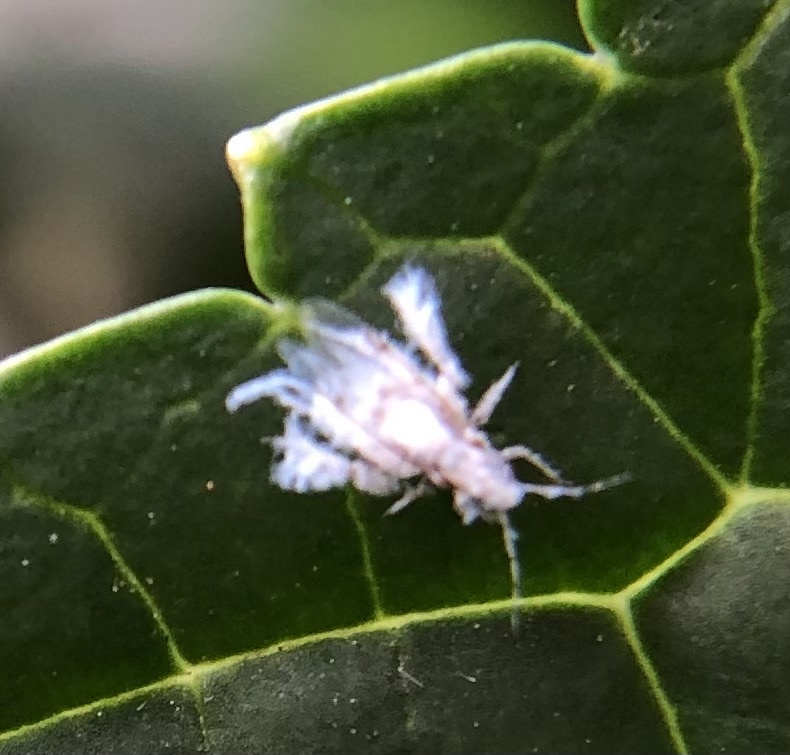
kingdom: Animalia
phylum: Arthropoda
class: Insecta
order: Hemiptera
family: Aphididae
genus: Shivaphis
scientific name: Shivaphis celti
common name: Asian wooly hackberry aphid
